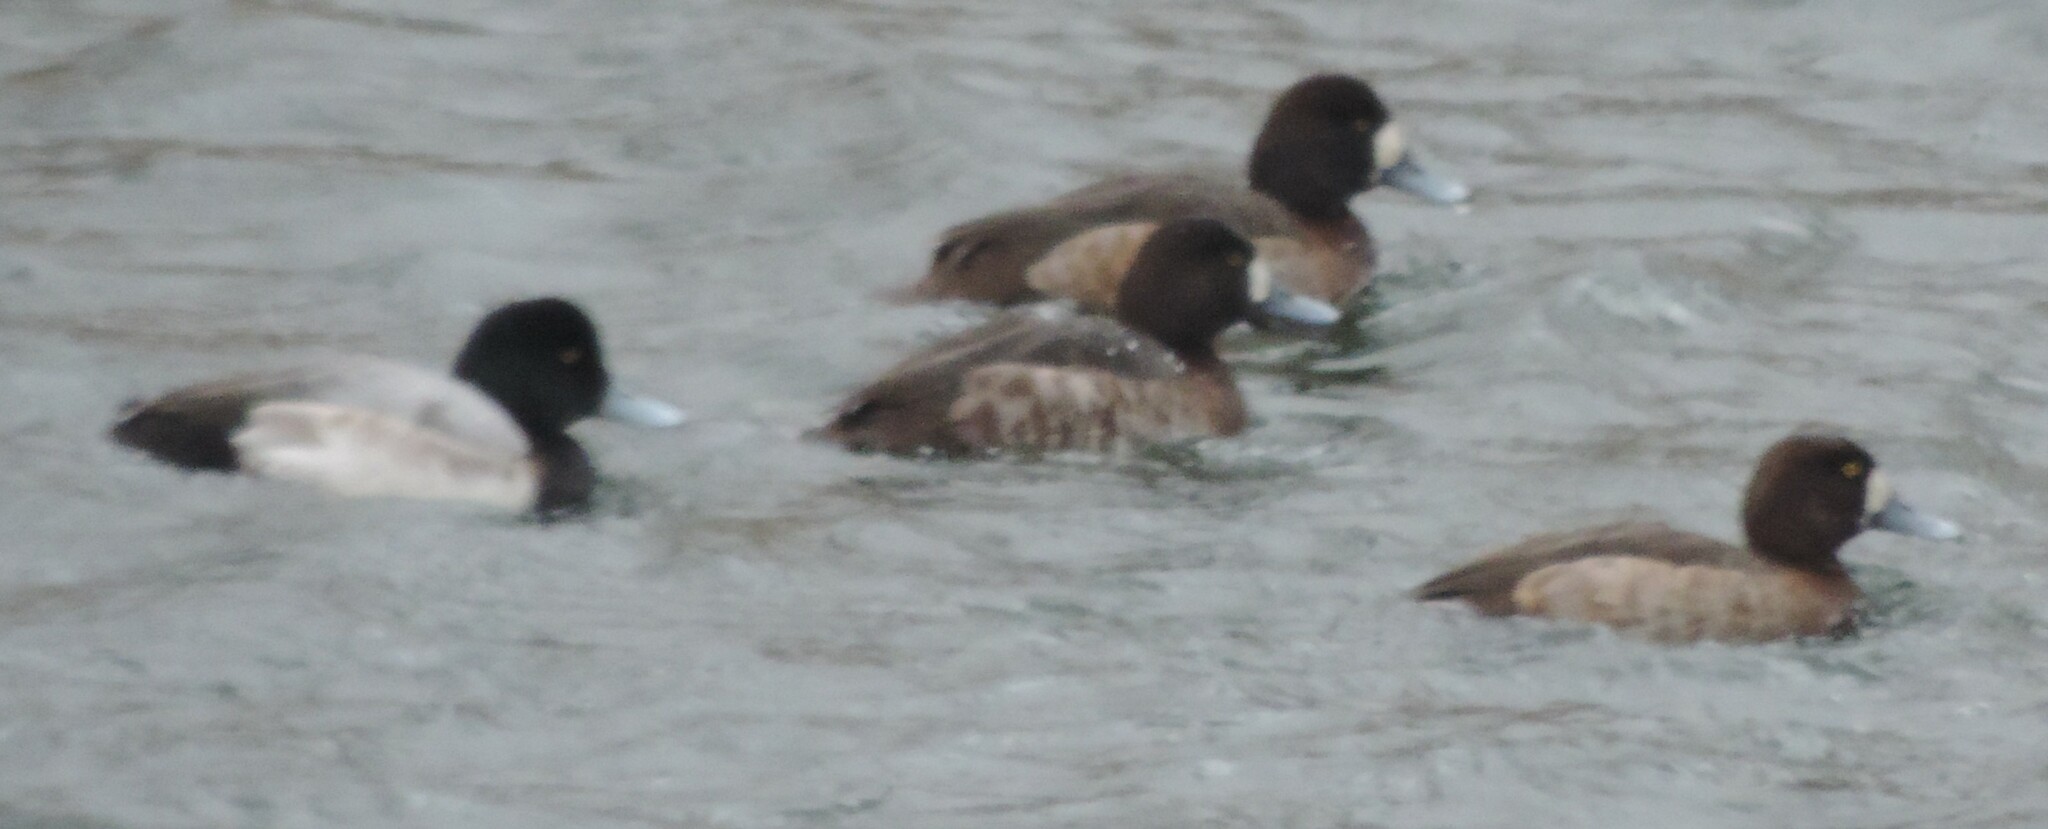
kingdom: Animalia
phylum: Chordata
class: Aves
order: Anseriformes
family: Anatidae
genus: Aythya
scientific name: Aythya marila
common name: Greater scaup
